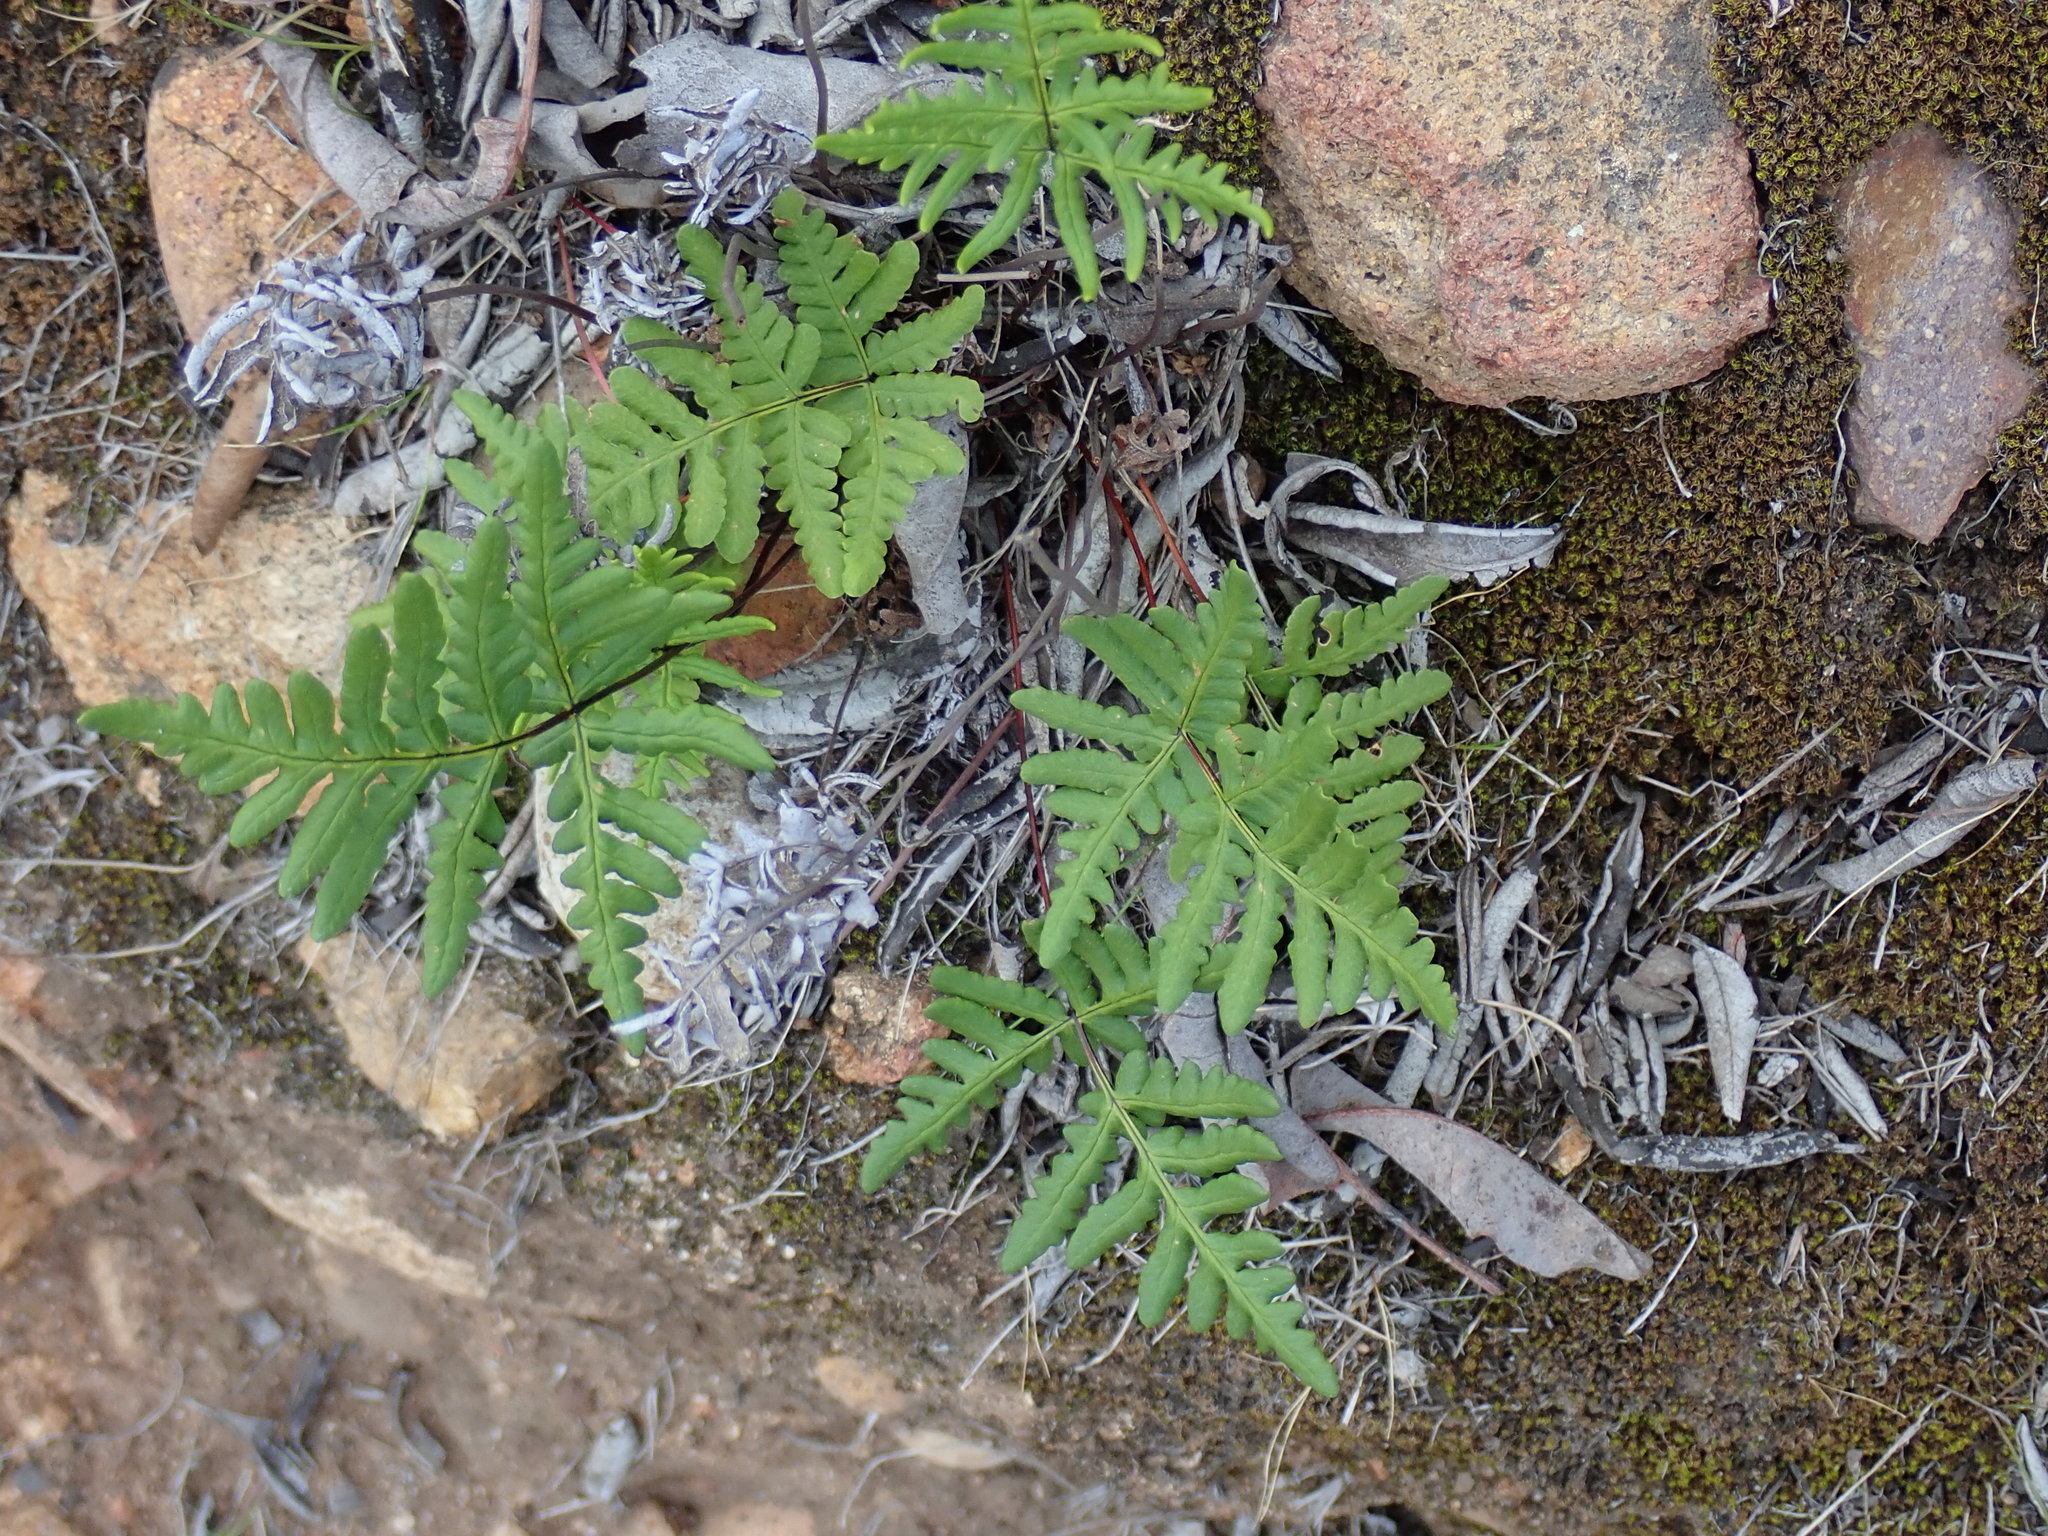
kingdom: Plantae
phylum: Tracheophyta
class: Polypodiopsida
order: Polypodiales
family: Pteridaceae
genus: Pentagramma
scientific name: Pentagramma triangularis
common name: Gold fern
